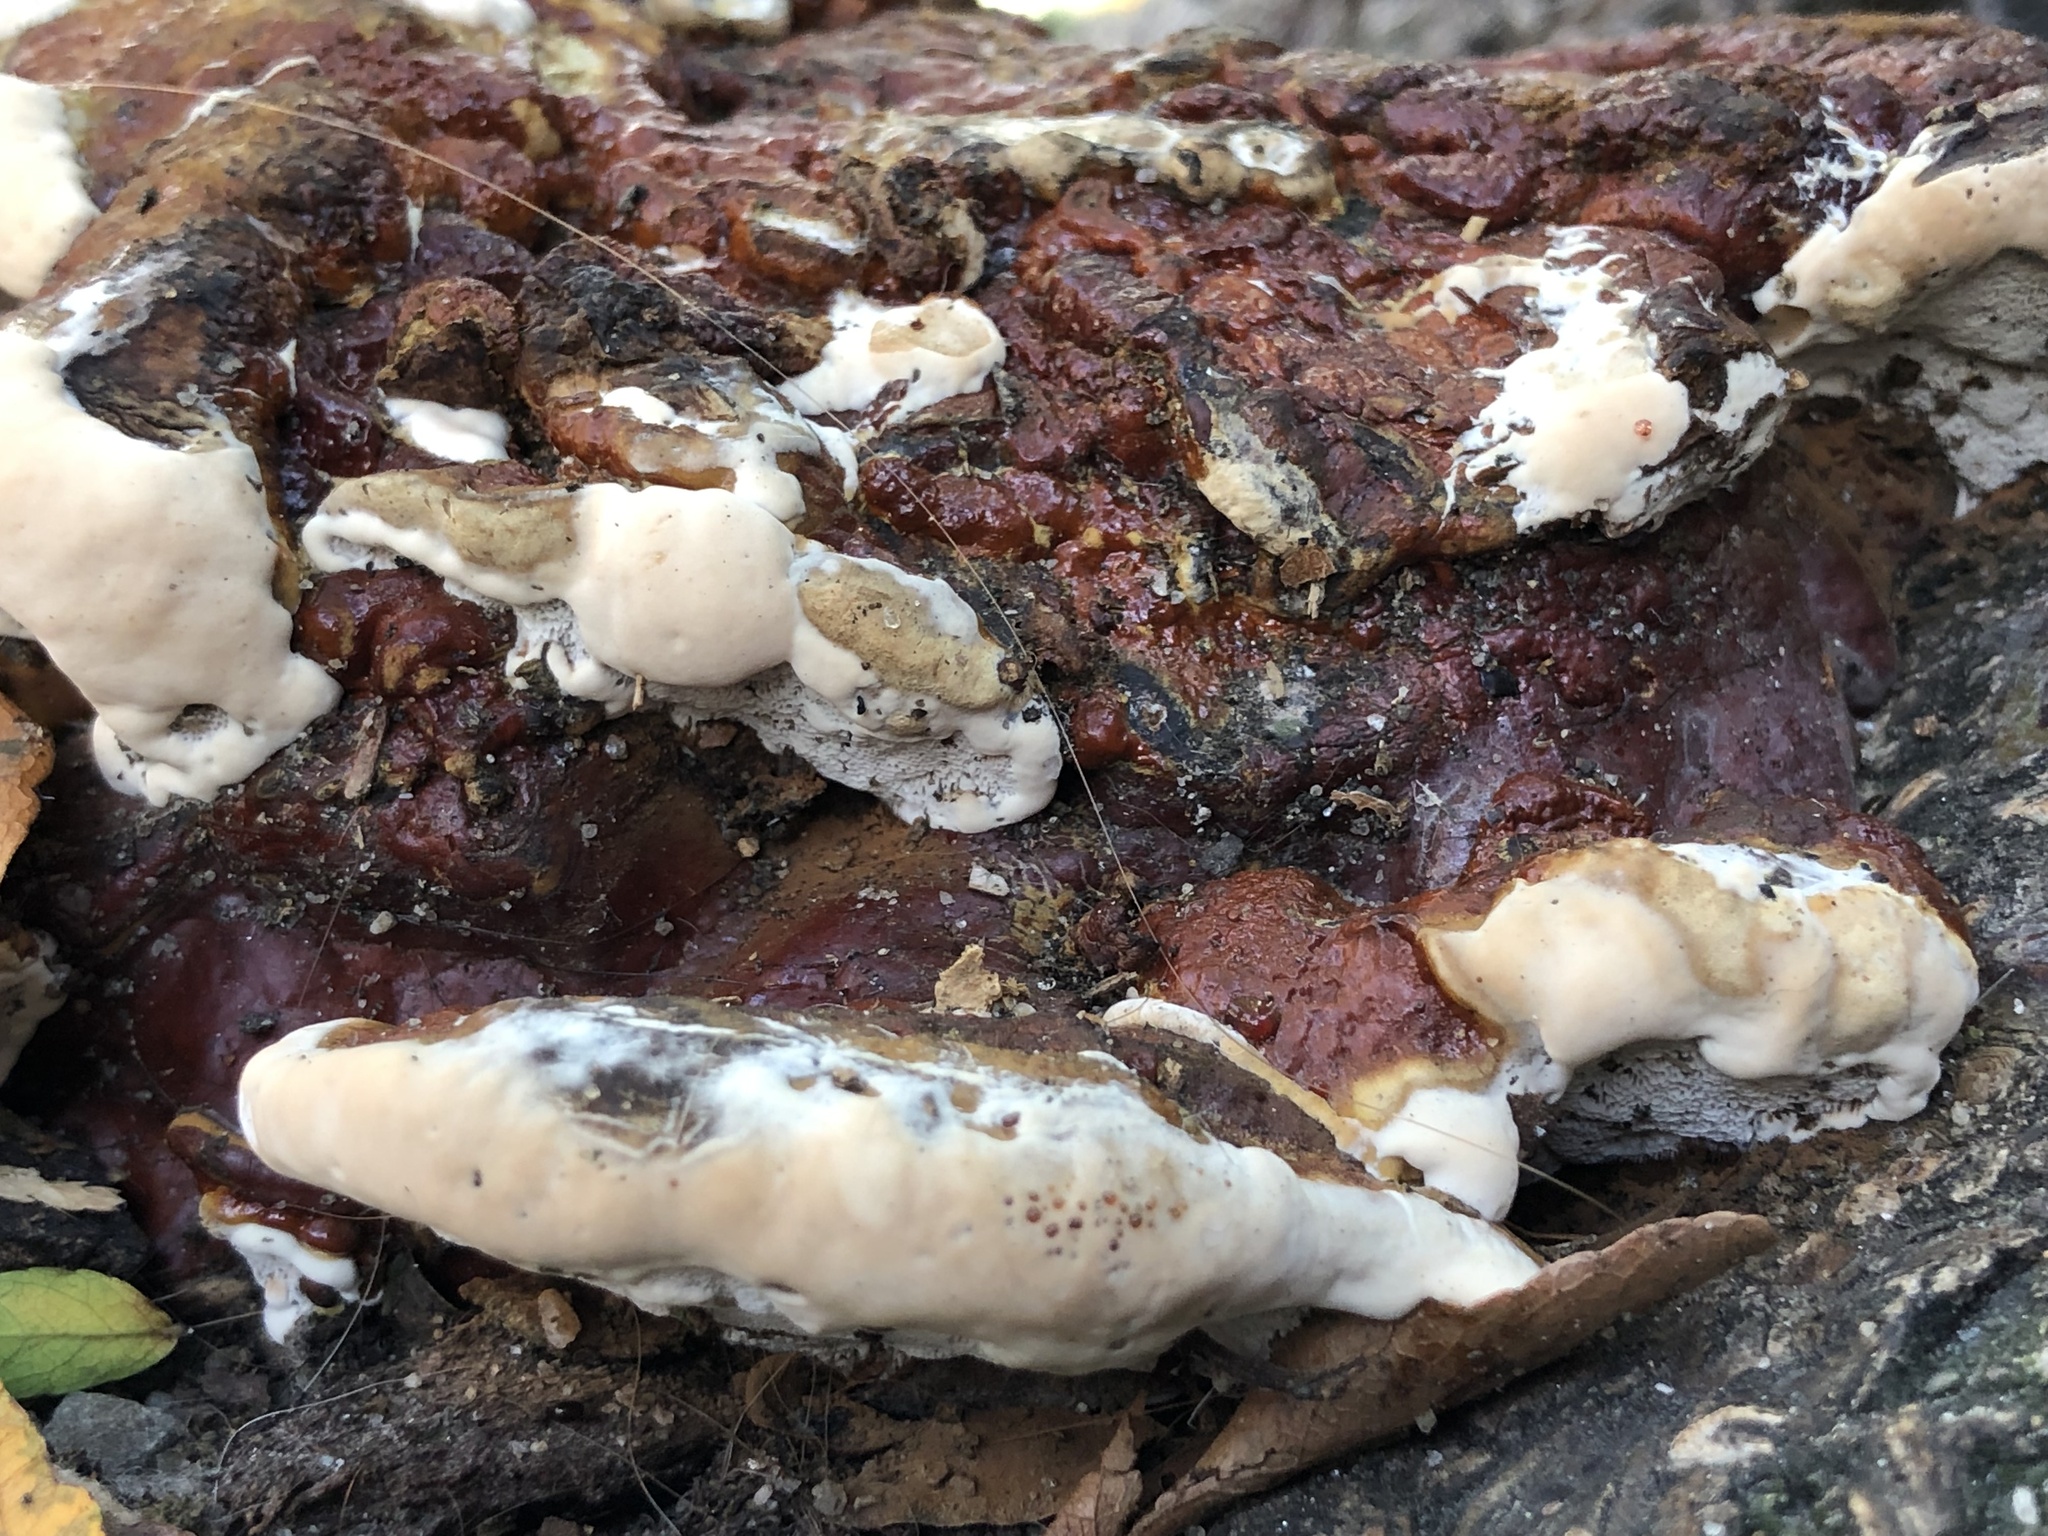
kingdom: Fungi
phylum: Basidiomycota
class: Agaricomycetes
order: Polyporales
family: Polyporaceae
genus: Ganoderma
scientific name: Ganoderma resinaceum
